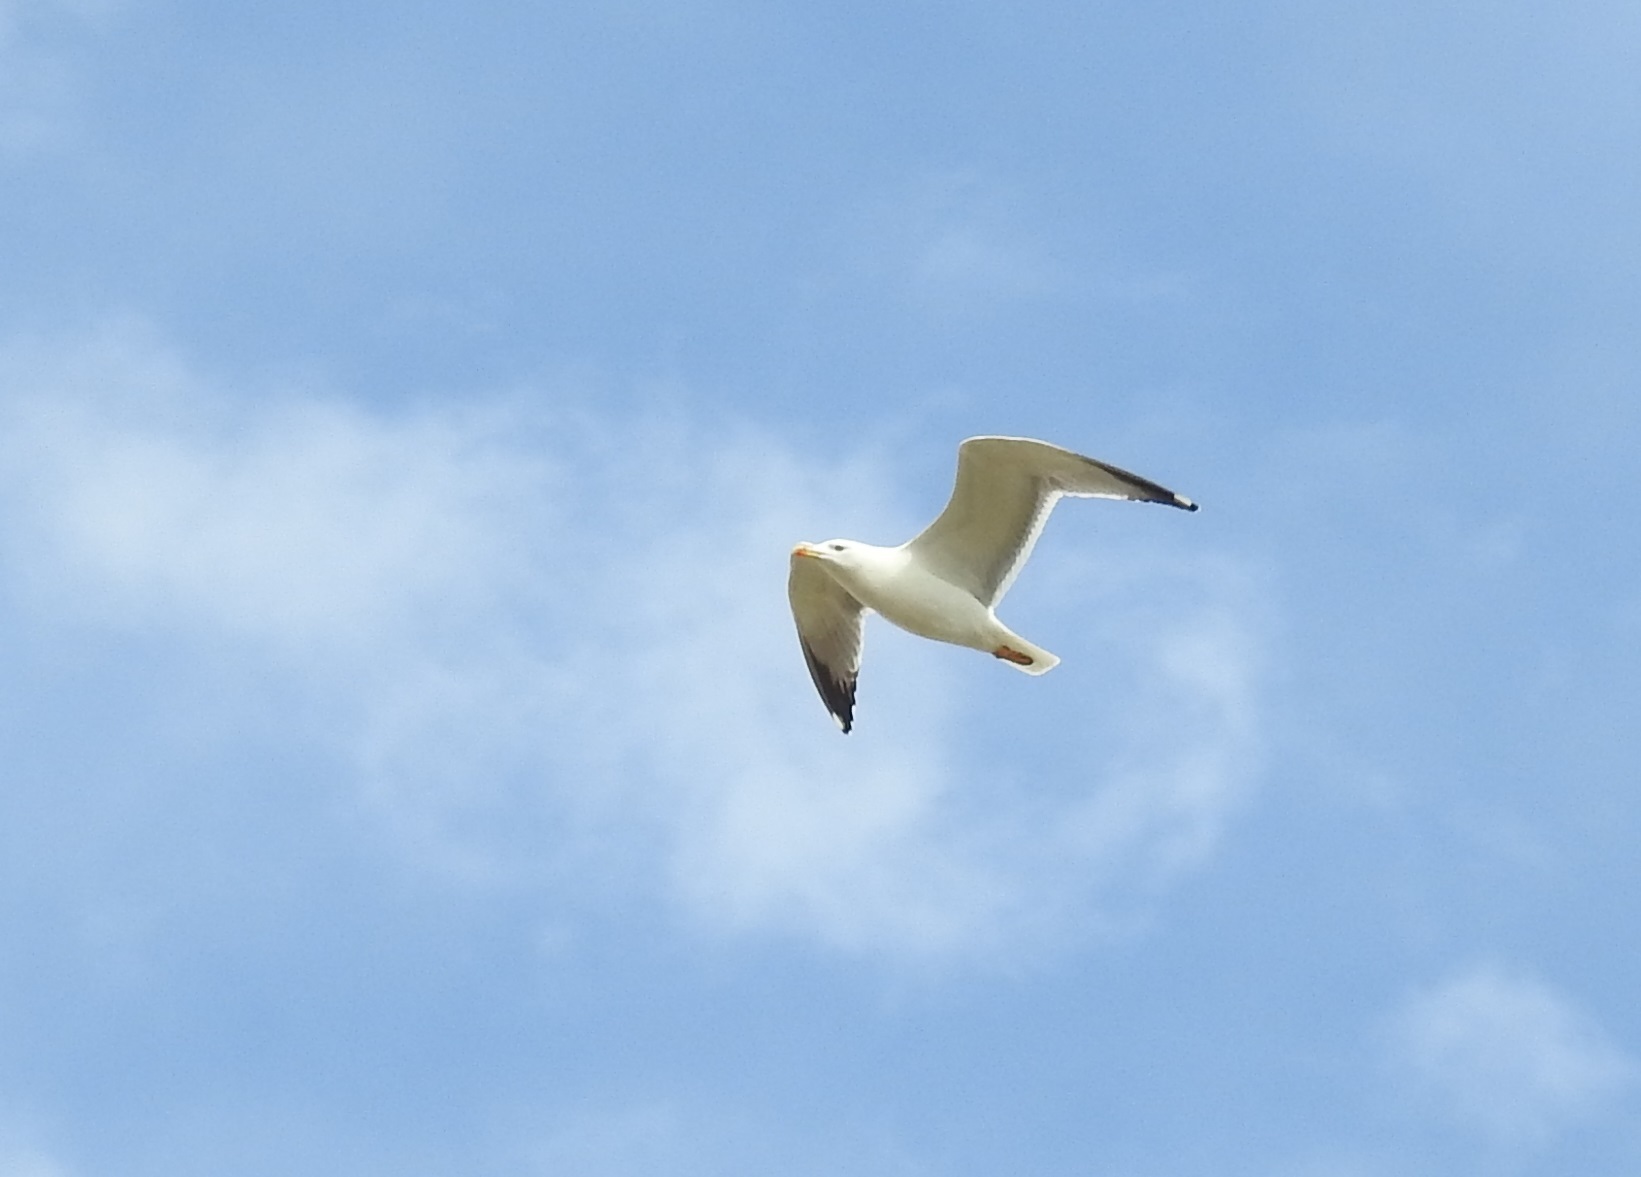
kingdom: Animalia
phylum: Chordata
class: Aves
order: Charadriiformes
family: Laridae
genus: Larus
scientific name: Larus michahellis
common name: Yellow-legged gull
